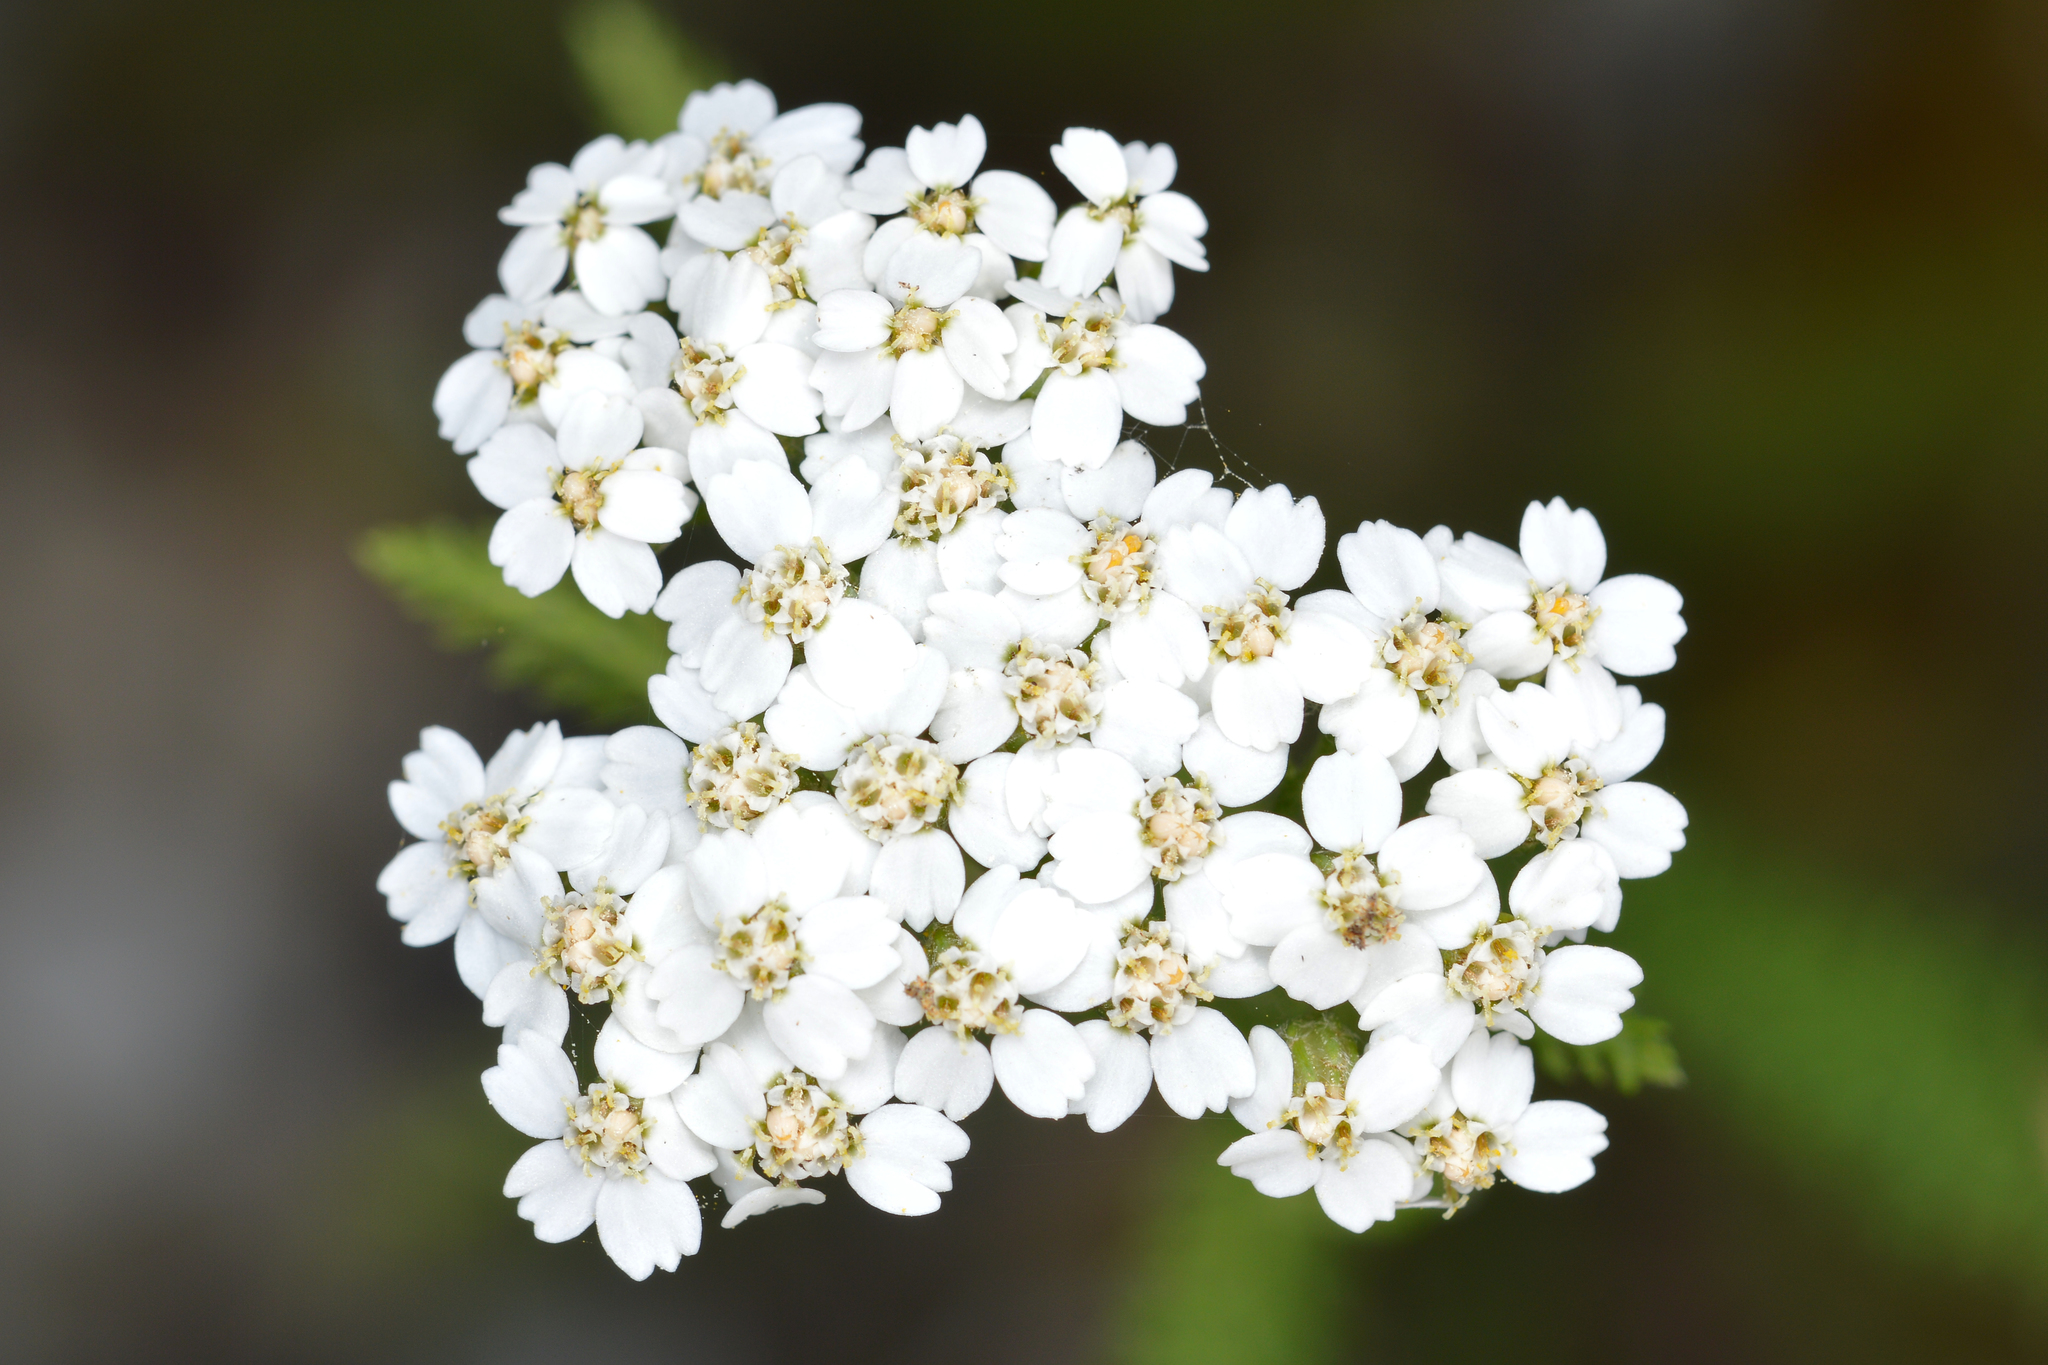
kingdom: Plantae
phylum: Tracheophyta
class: Magnoliopsida
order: Asterales
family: Asteraceae
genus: Achillea
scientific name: Achillea millefolium
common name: Yarrow
